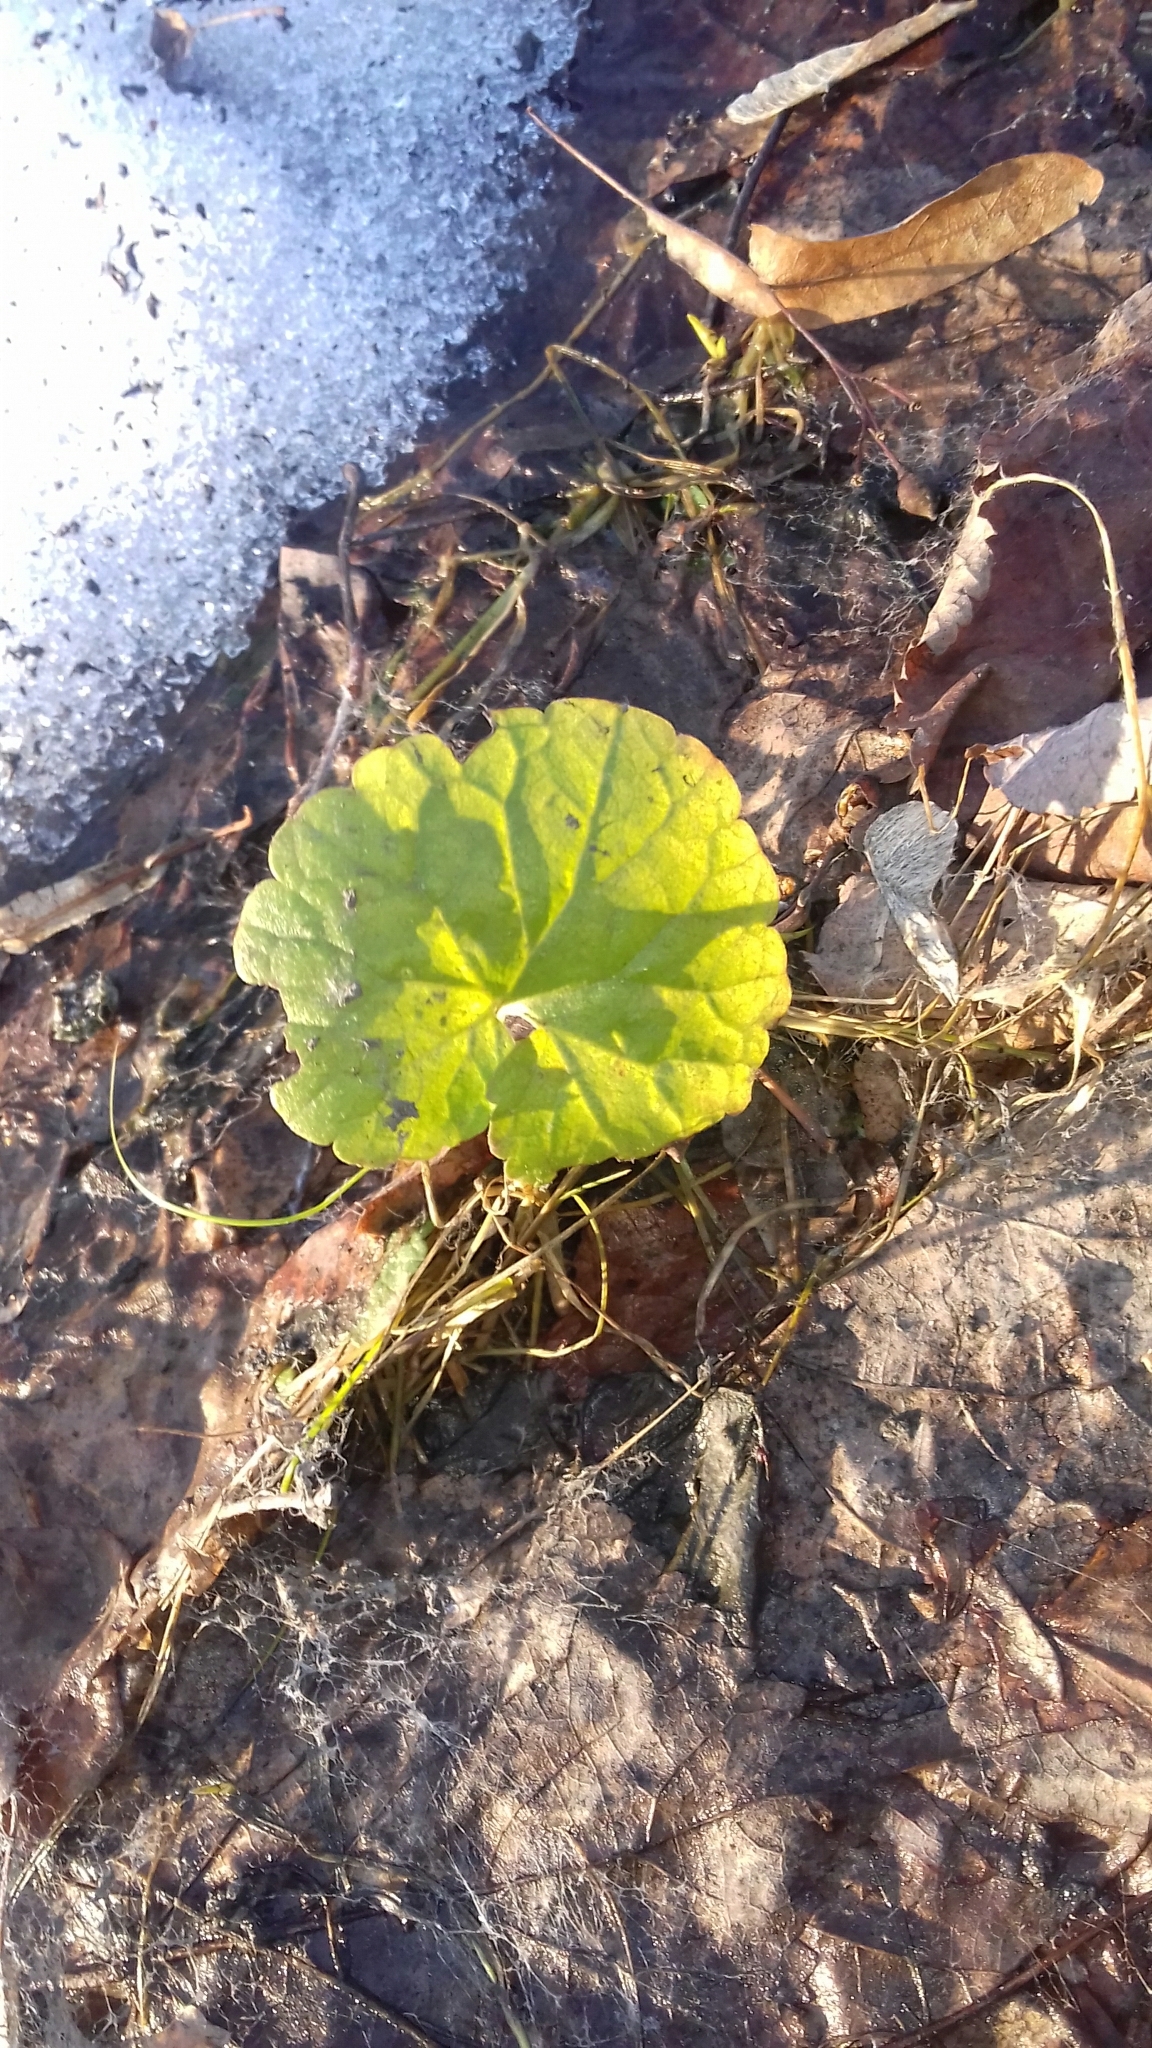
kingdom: Plantae
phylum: Tracheophyta
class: Magnoliopsida
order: Lamiales
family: Lamiaceae
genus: Glechoma
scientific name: Glechoma hederacea
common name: Ground ivy
